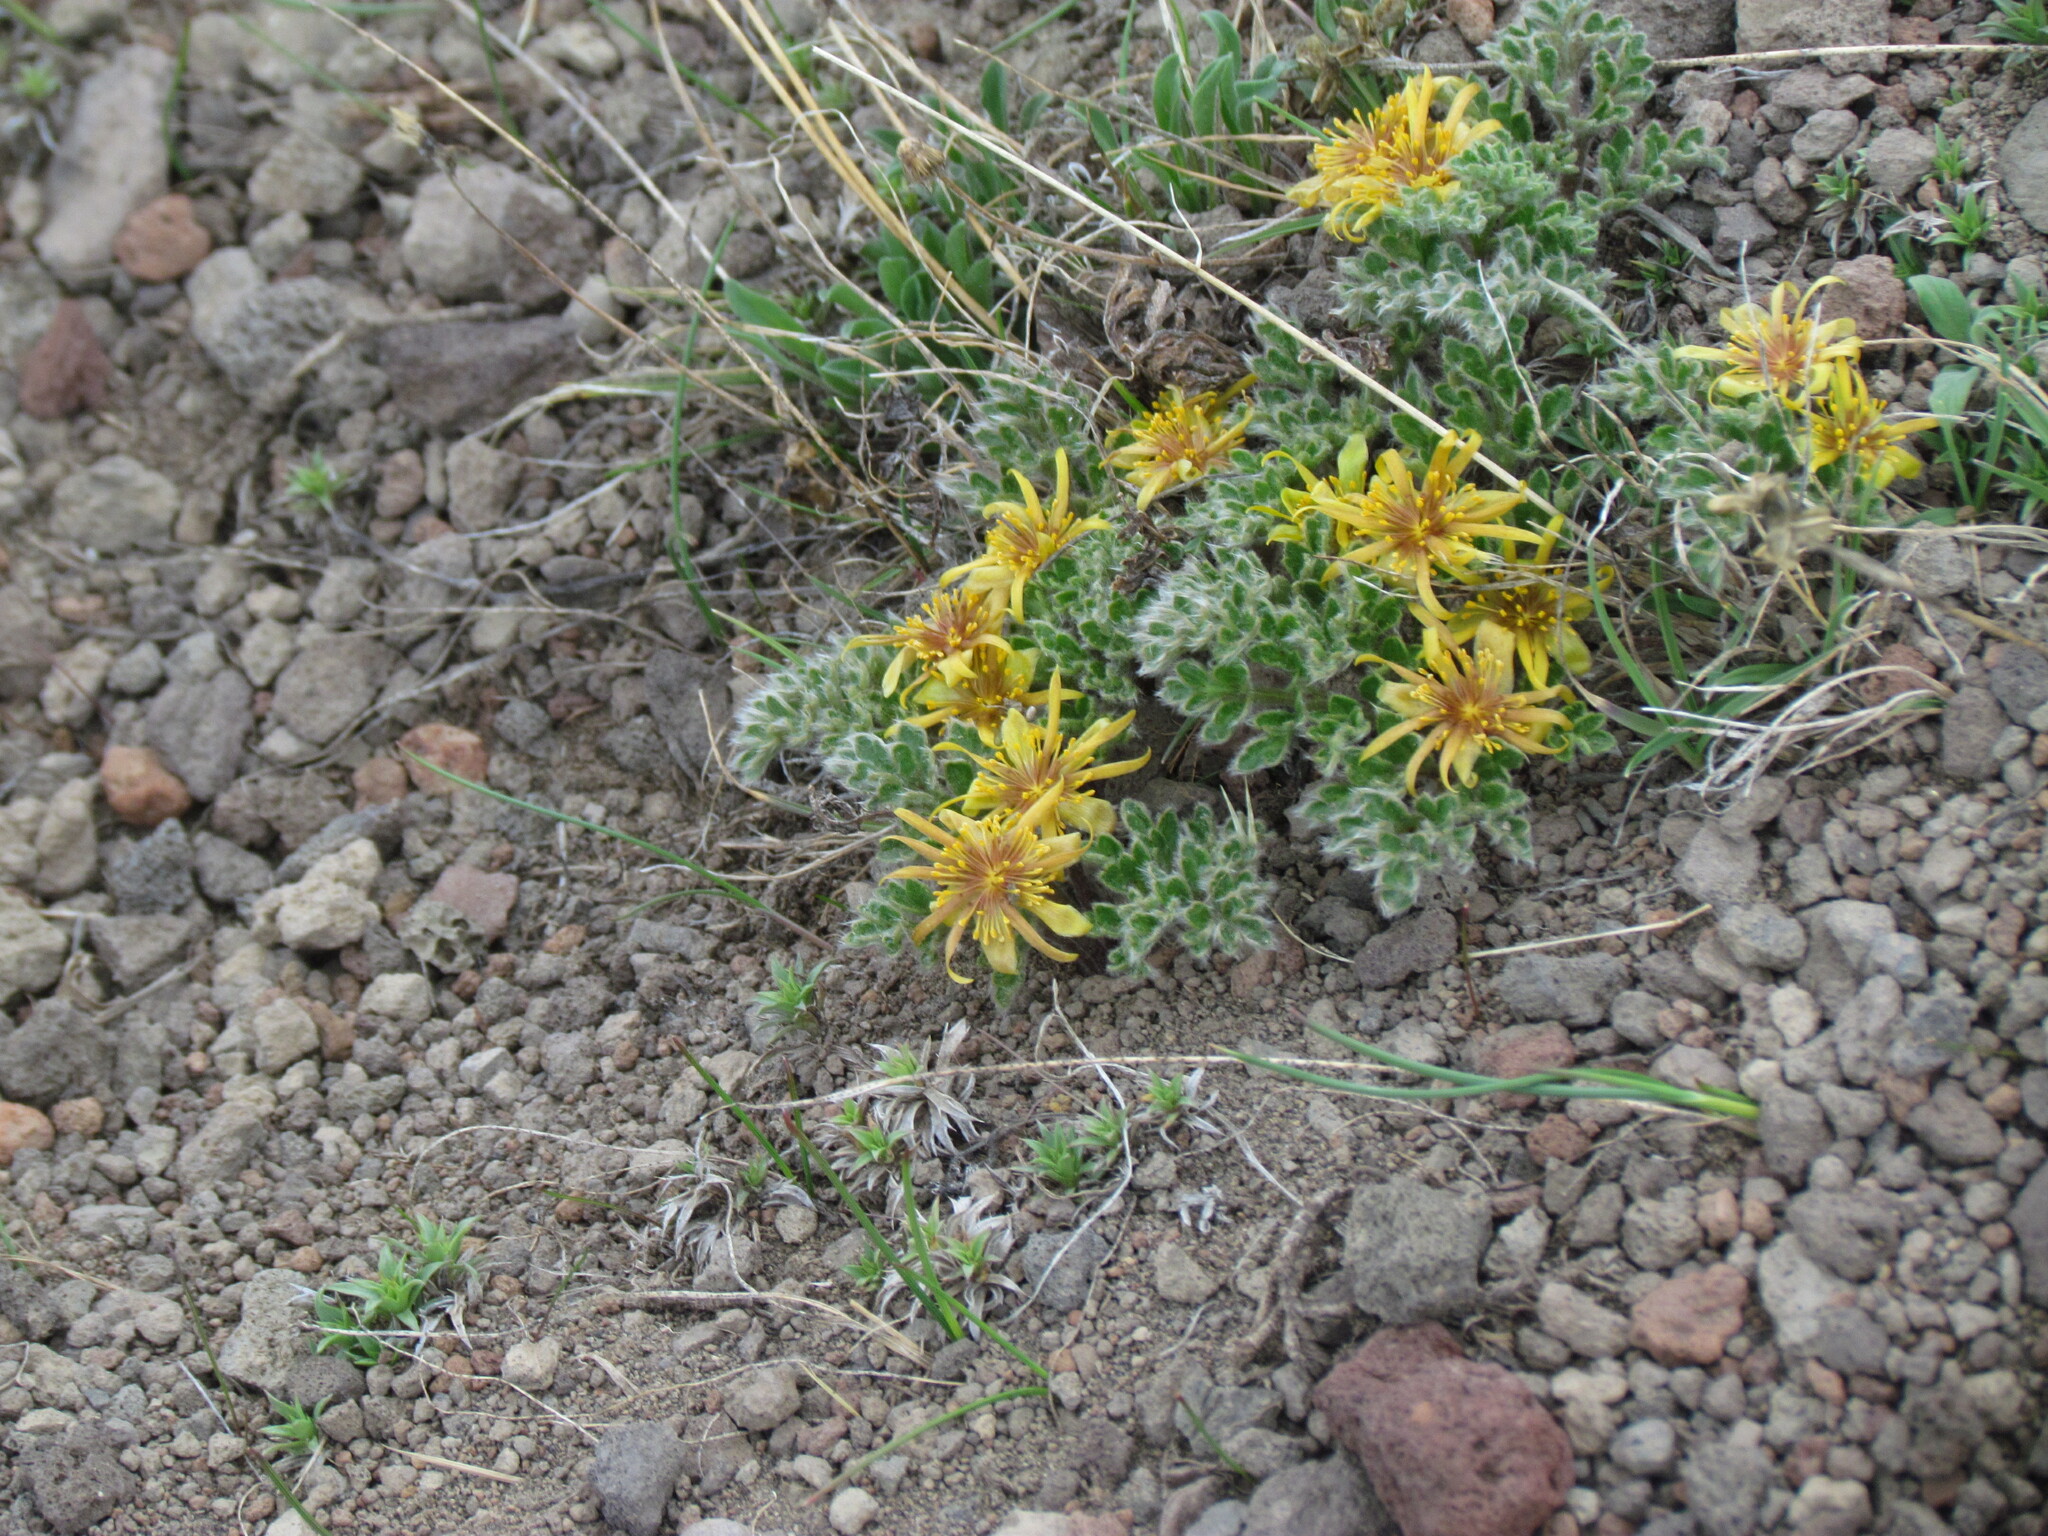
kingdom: Plantae
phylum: Tracheophyta
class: Magnoliopsida
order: Ranunculales
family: Ranunculaceae
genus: Hamadryas
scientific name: Hamadryas delfinii
